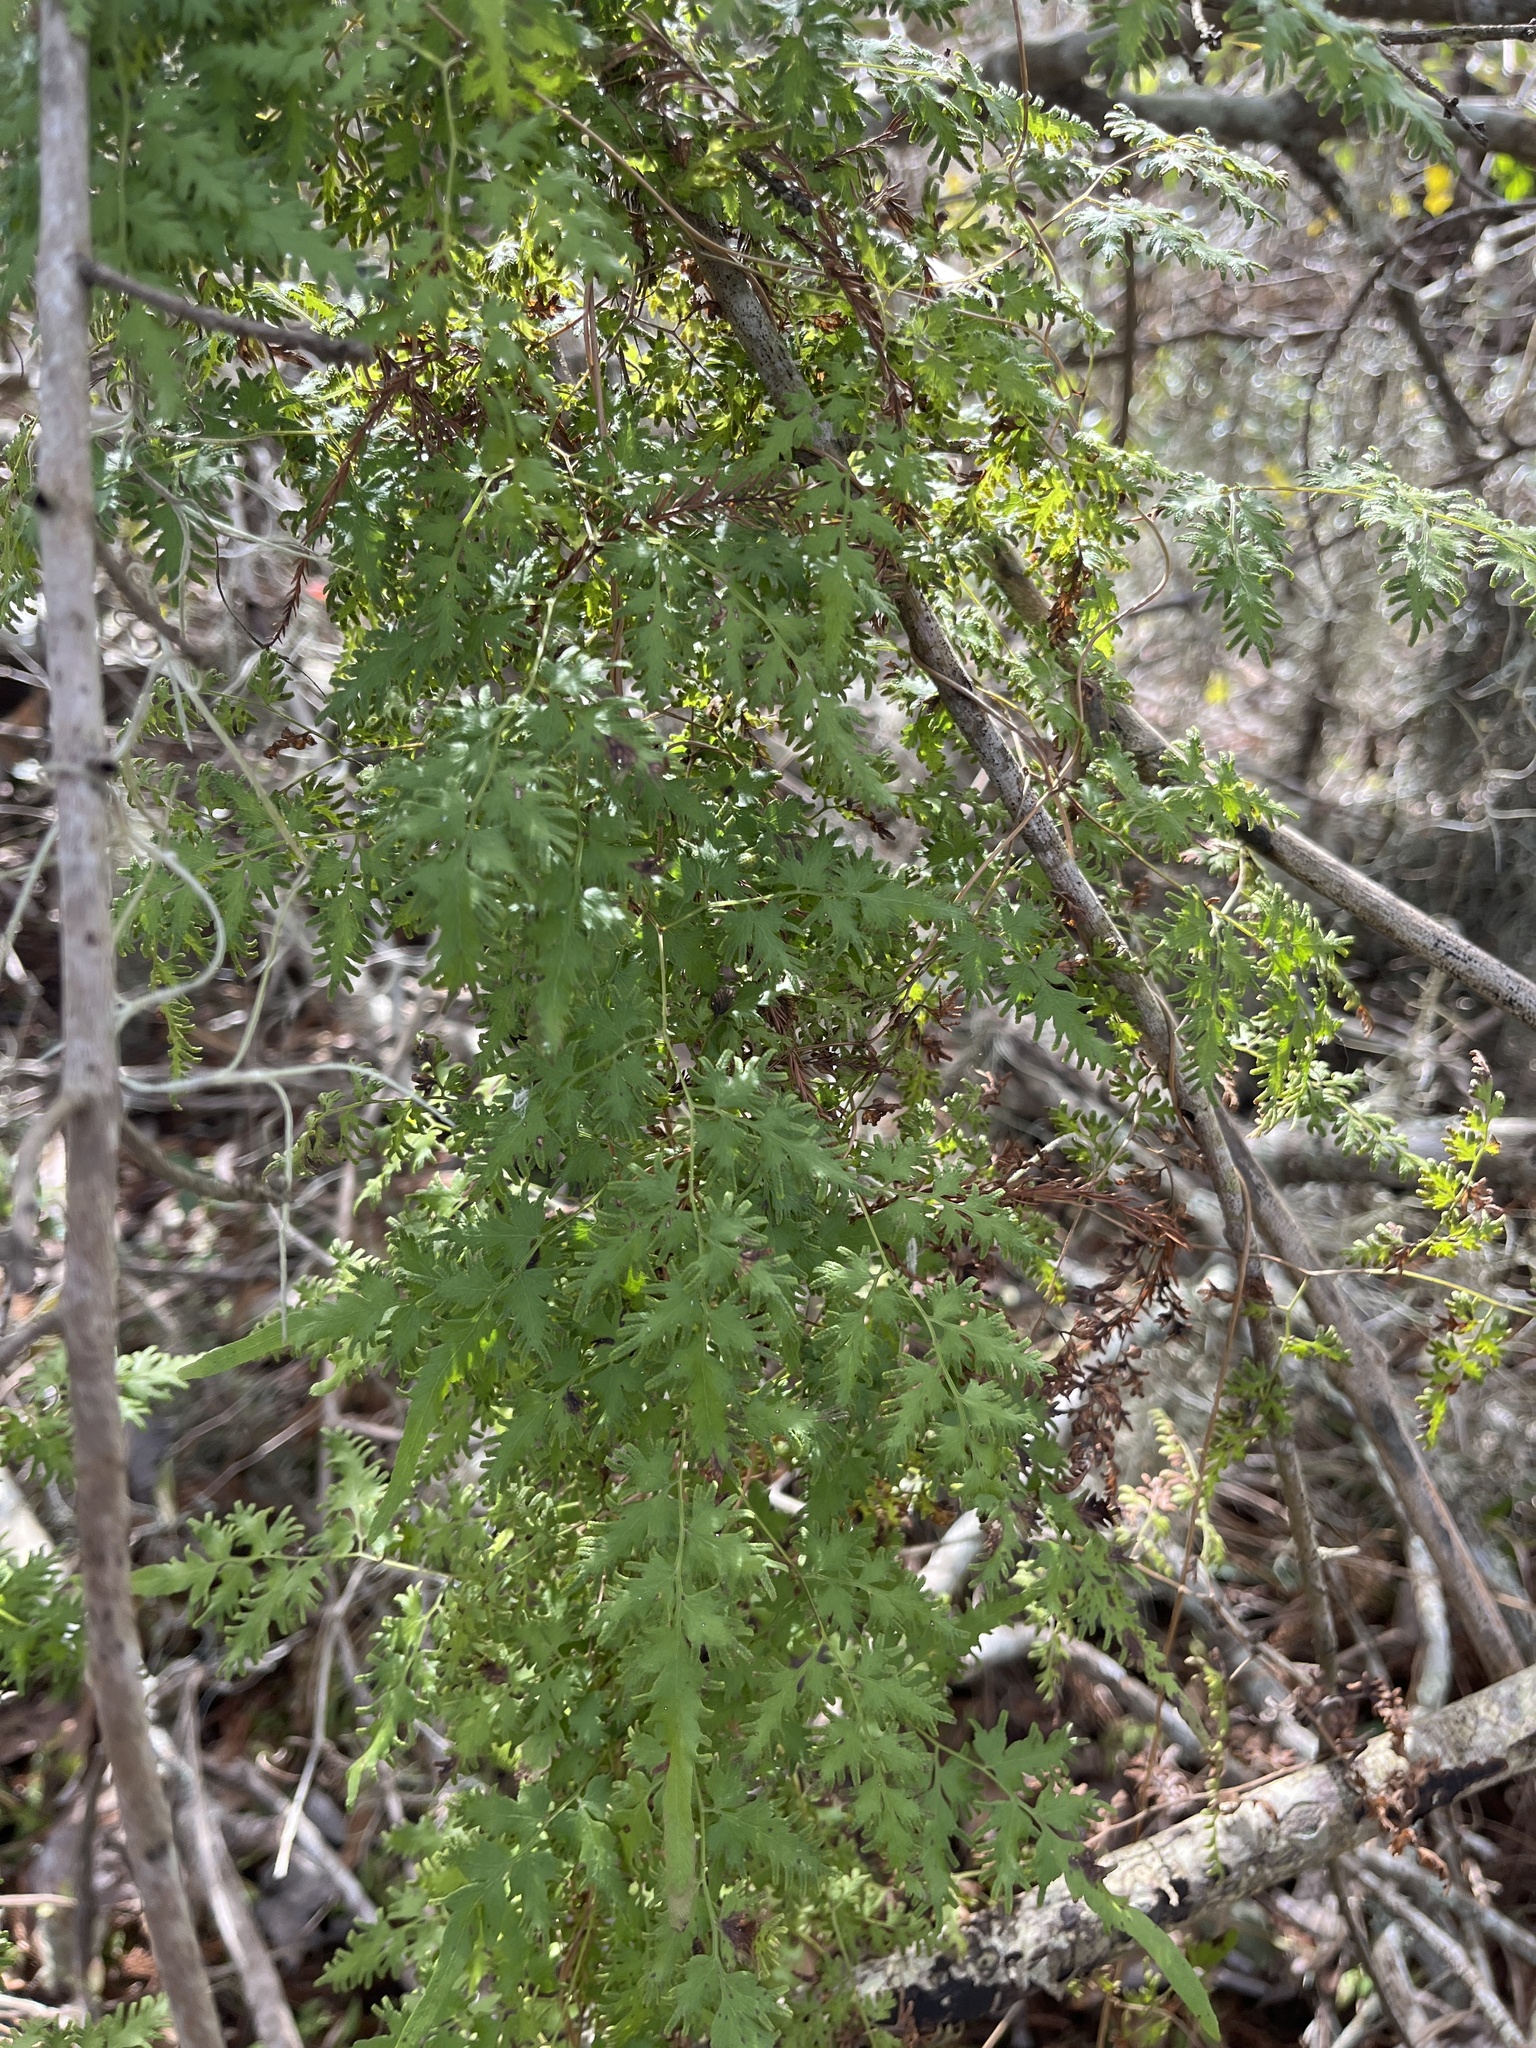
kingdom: Plantae
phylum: Tracheophyta
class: Polypodiopsida
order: Schizaeales
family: Lygodiaceae
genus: Lygodium
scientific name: Lygodium japonicum
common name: Japanese climbing fern
